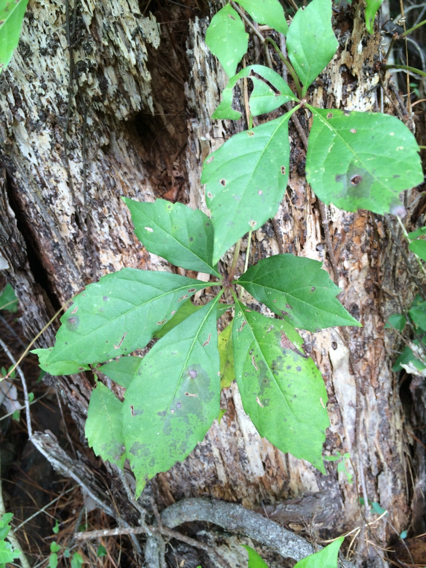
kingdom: Plantae
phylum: Tracheophyta
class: Magnoliopsida
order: Vitales
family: Vitaceae
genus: Parthenocissus
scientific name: Parthenocissus quinquefolia
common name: Virginia-creeper
